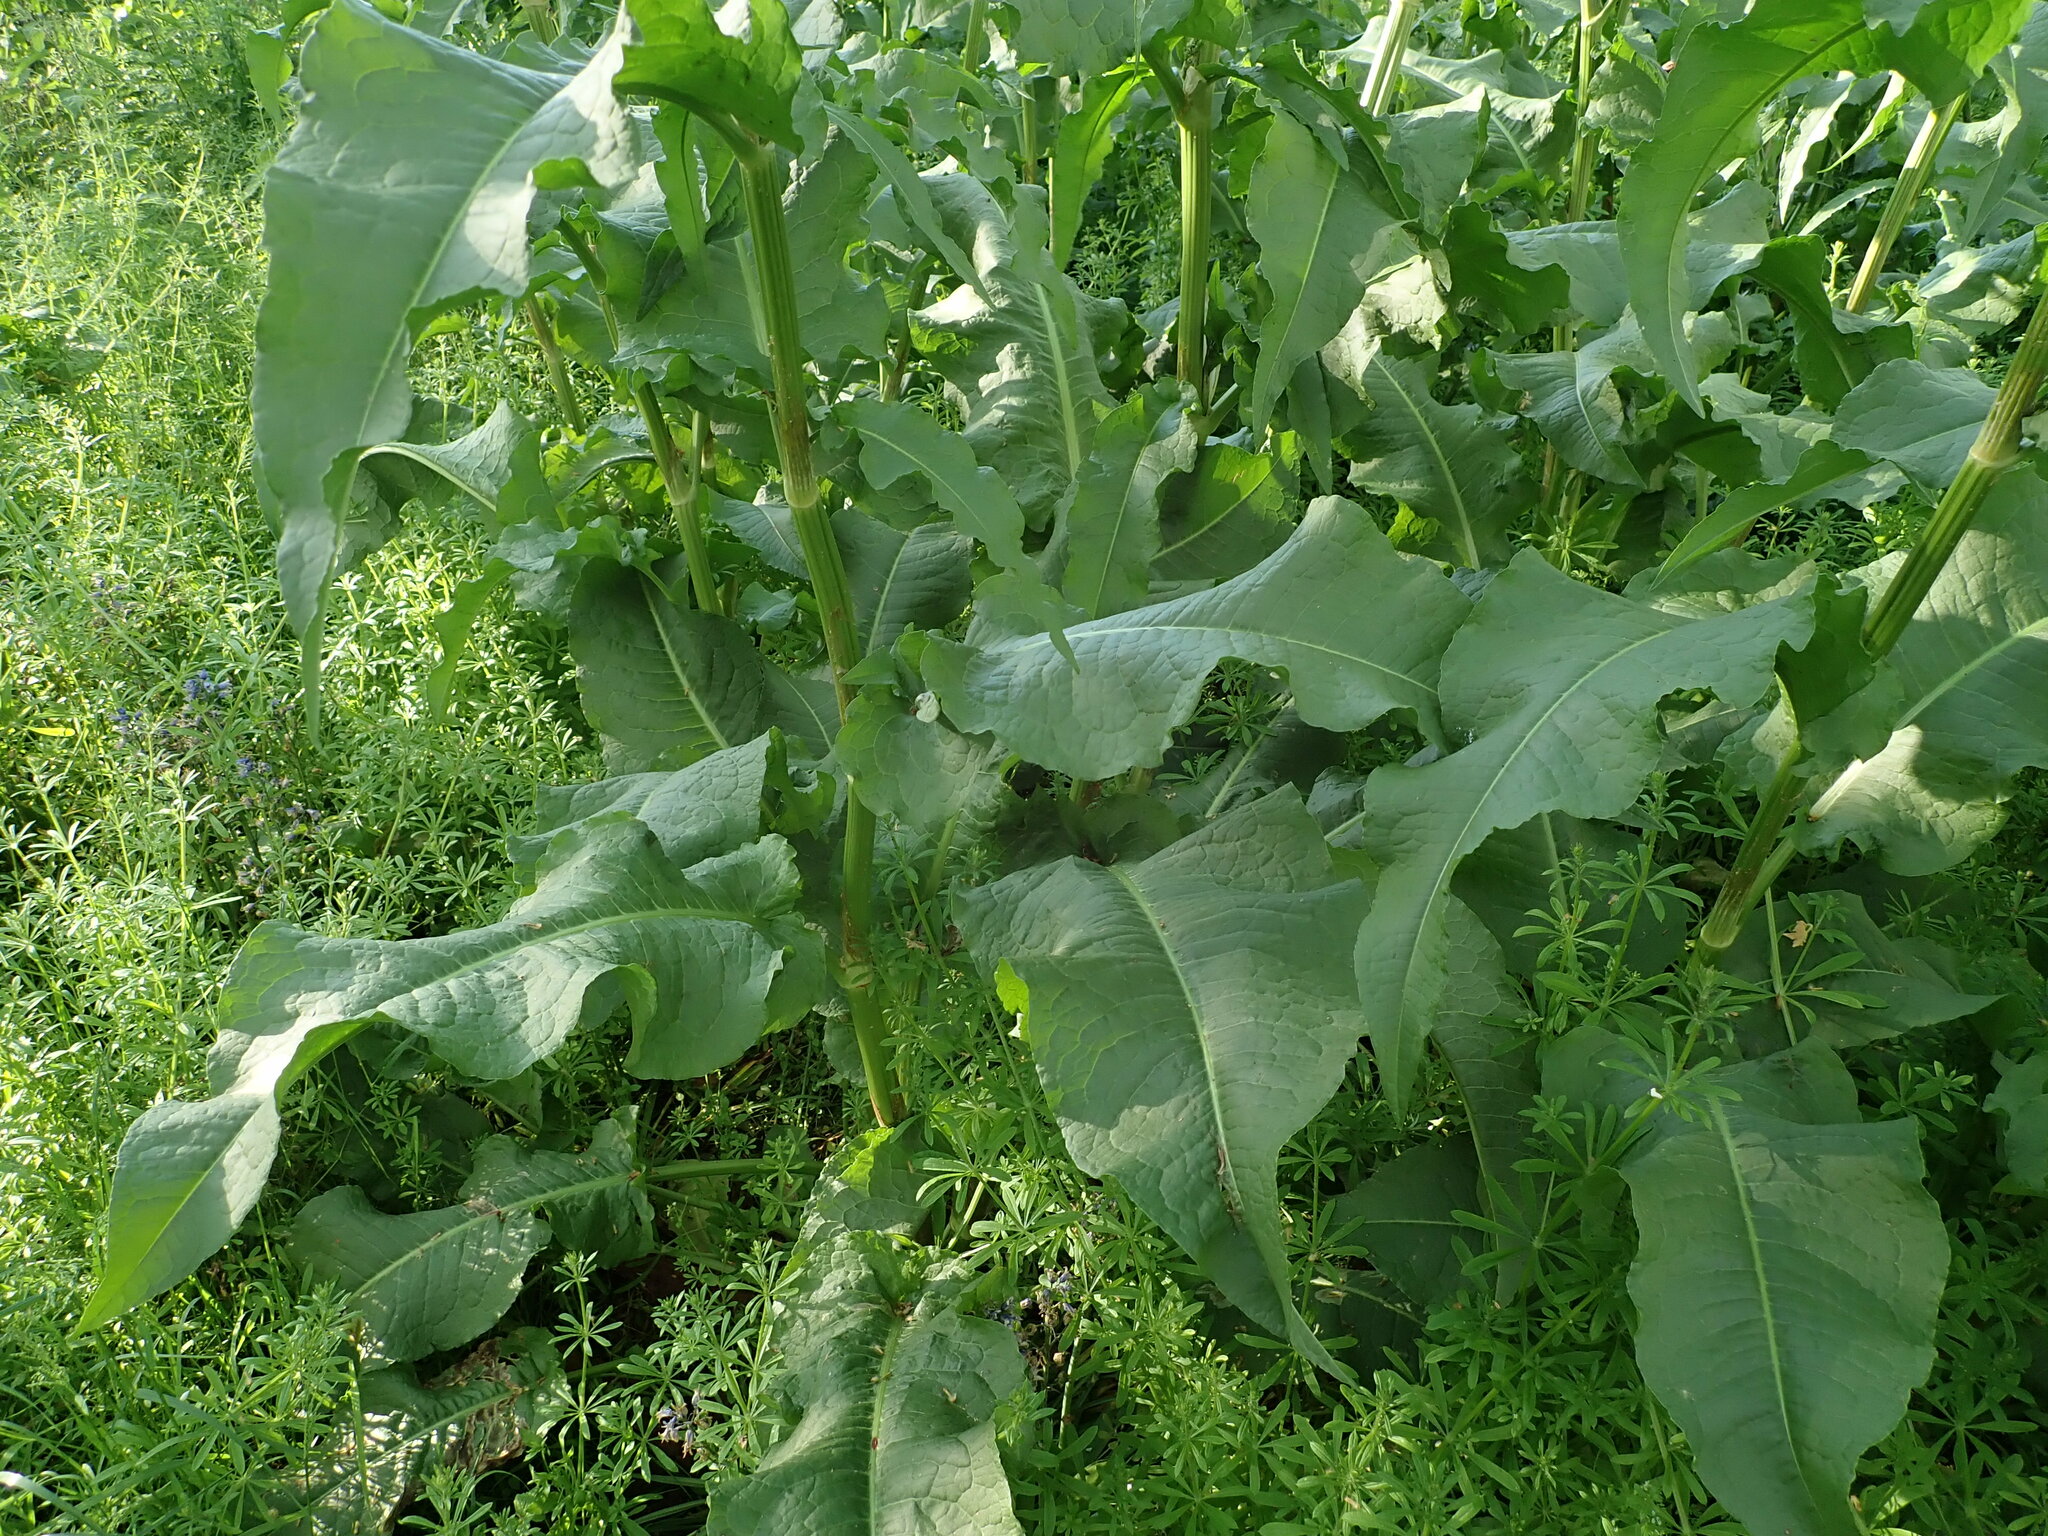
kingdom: Plantae
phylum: Tracheophyta
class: Magnoliopsida
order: Caryophyllales
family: Polygonaceae
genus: Rumex
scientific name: Rumex cristatus
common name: Greek dock
